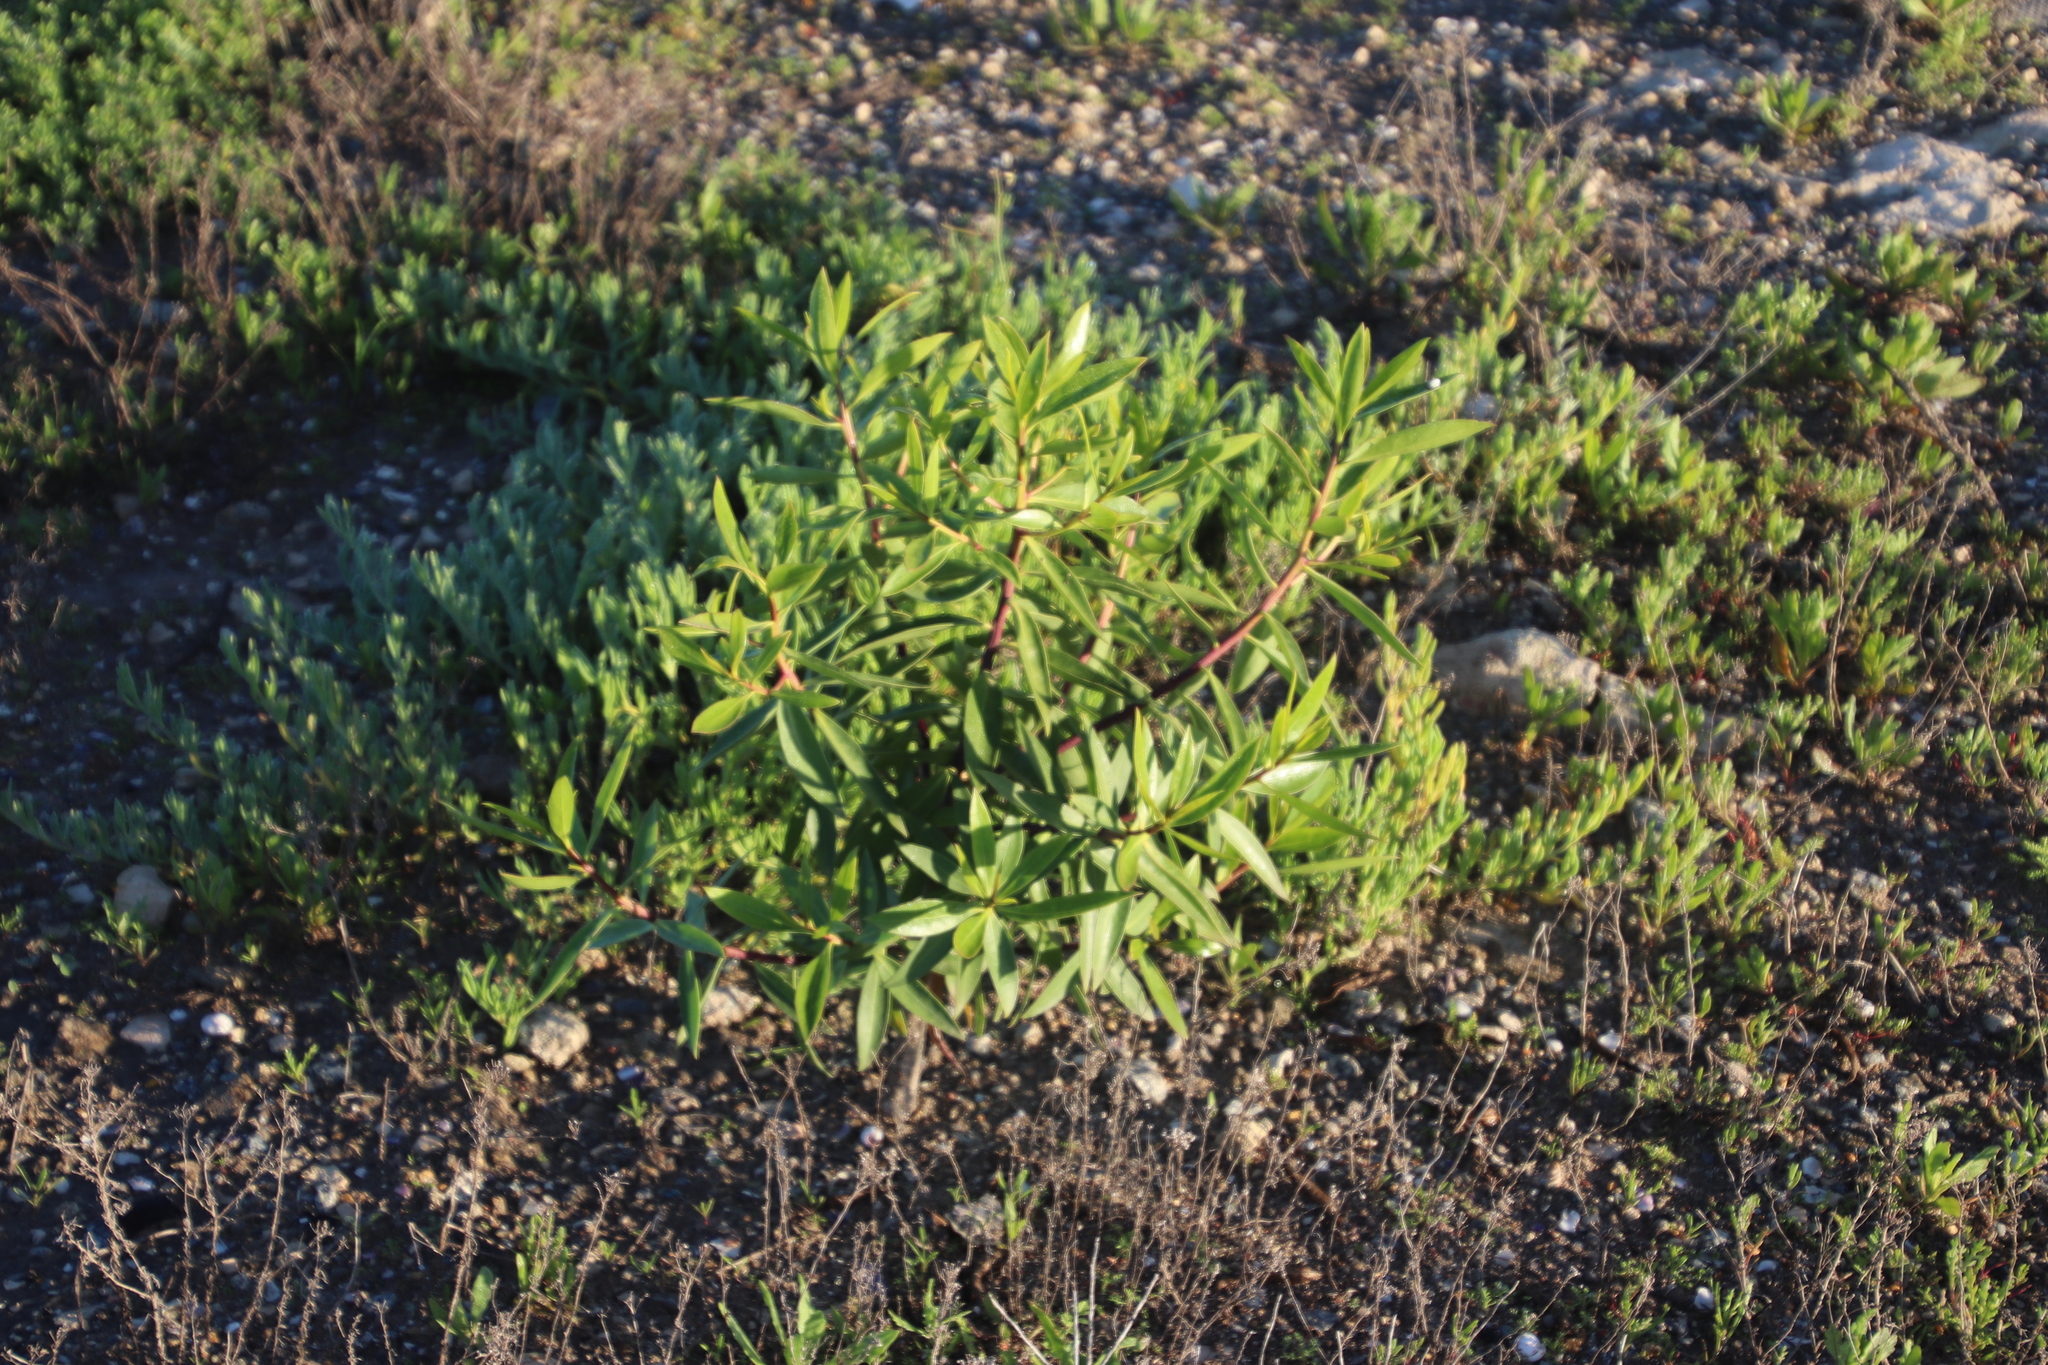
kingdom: Plantae
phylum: Tracheophyta
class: Magnoliopsida
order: Lamiales
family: Scrophulariaceae
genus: Myoporum
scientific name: Myoporum insulare
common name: Common boobialla
